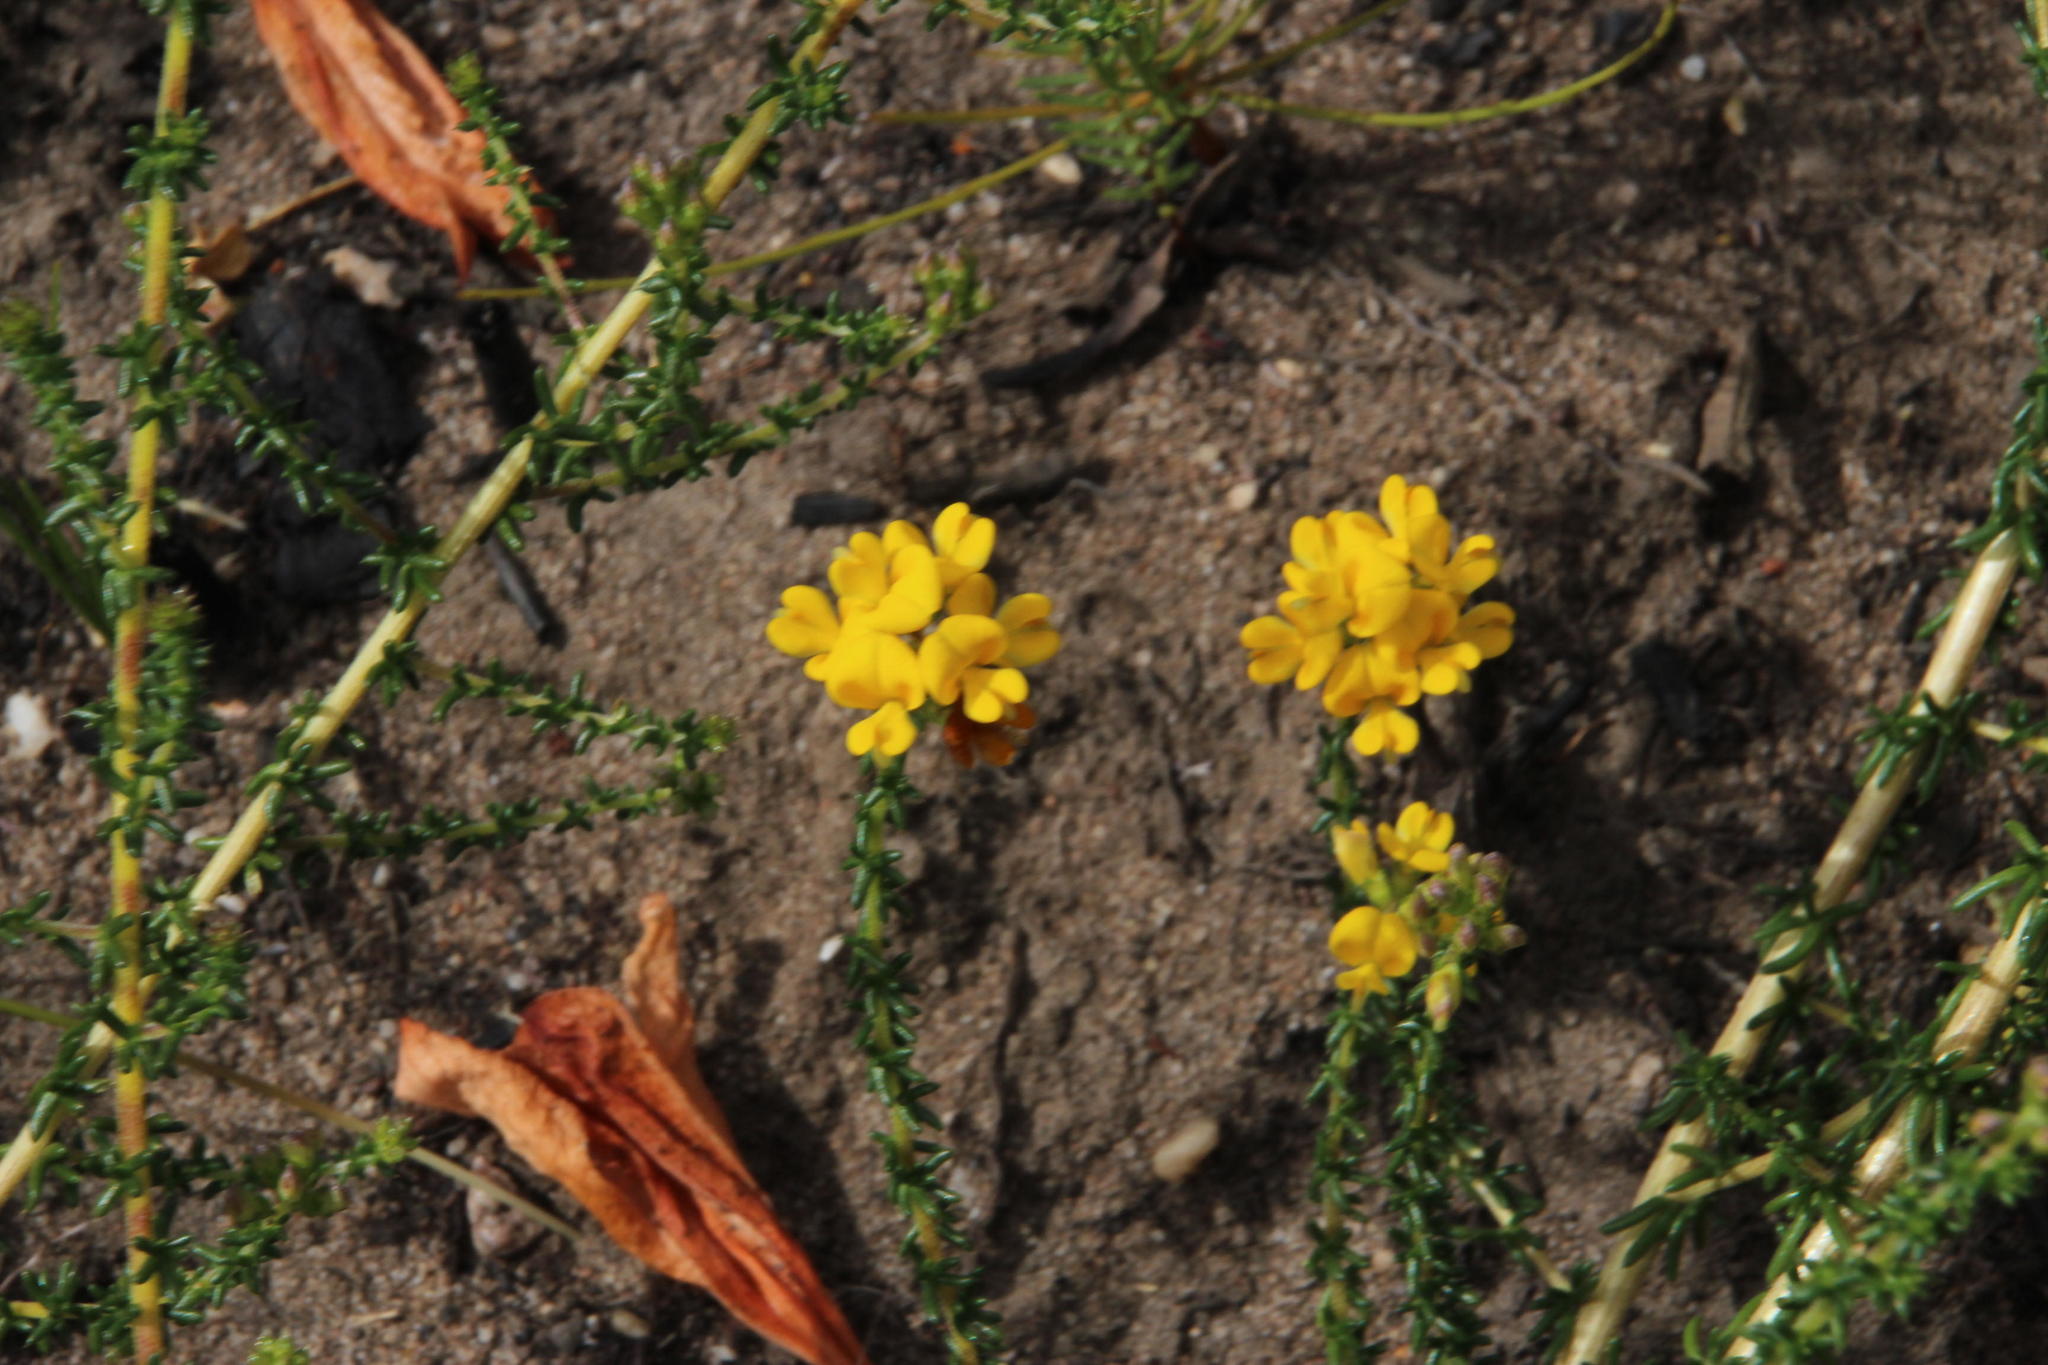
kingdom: Plantae
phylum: Tracheophyta
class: Magnoliopsida
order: Fabales
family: Fabaceae
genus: Aspalathus
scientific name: Aspalathus divaricata
